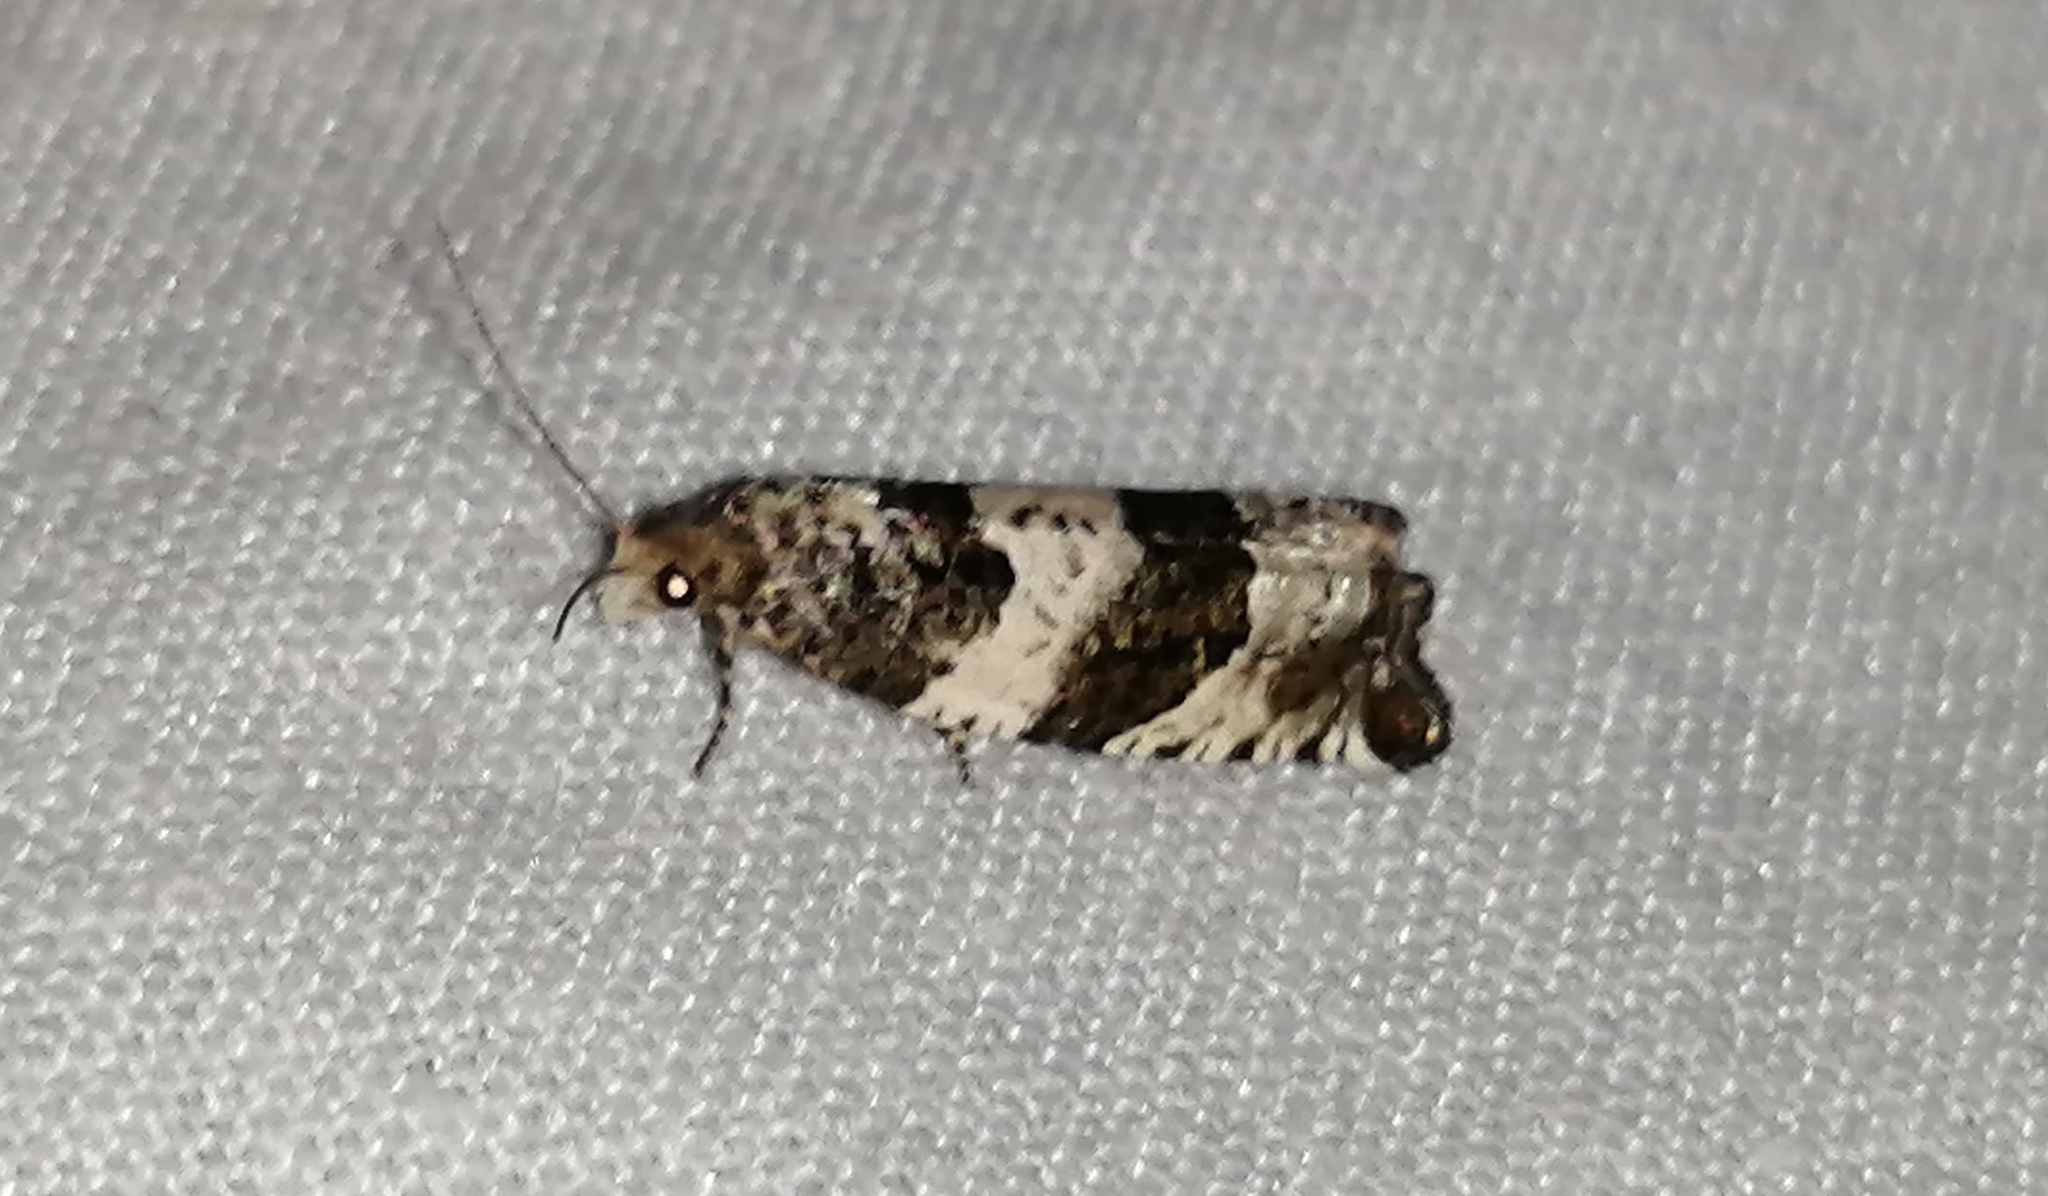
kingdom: Animalia
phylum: Arthropoda
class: Insecta
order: Lepidoptera
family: Tortricidae
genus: Gypsonoma
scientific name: Gypsonoma fasciolana
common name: Willow-and-poplar leafroller
